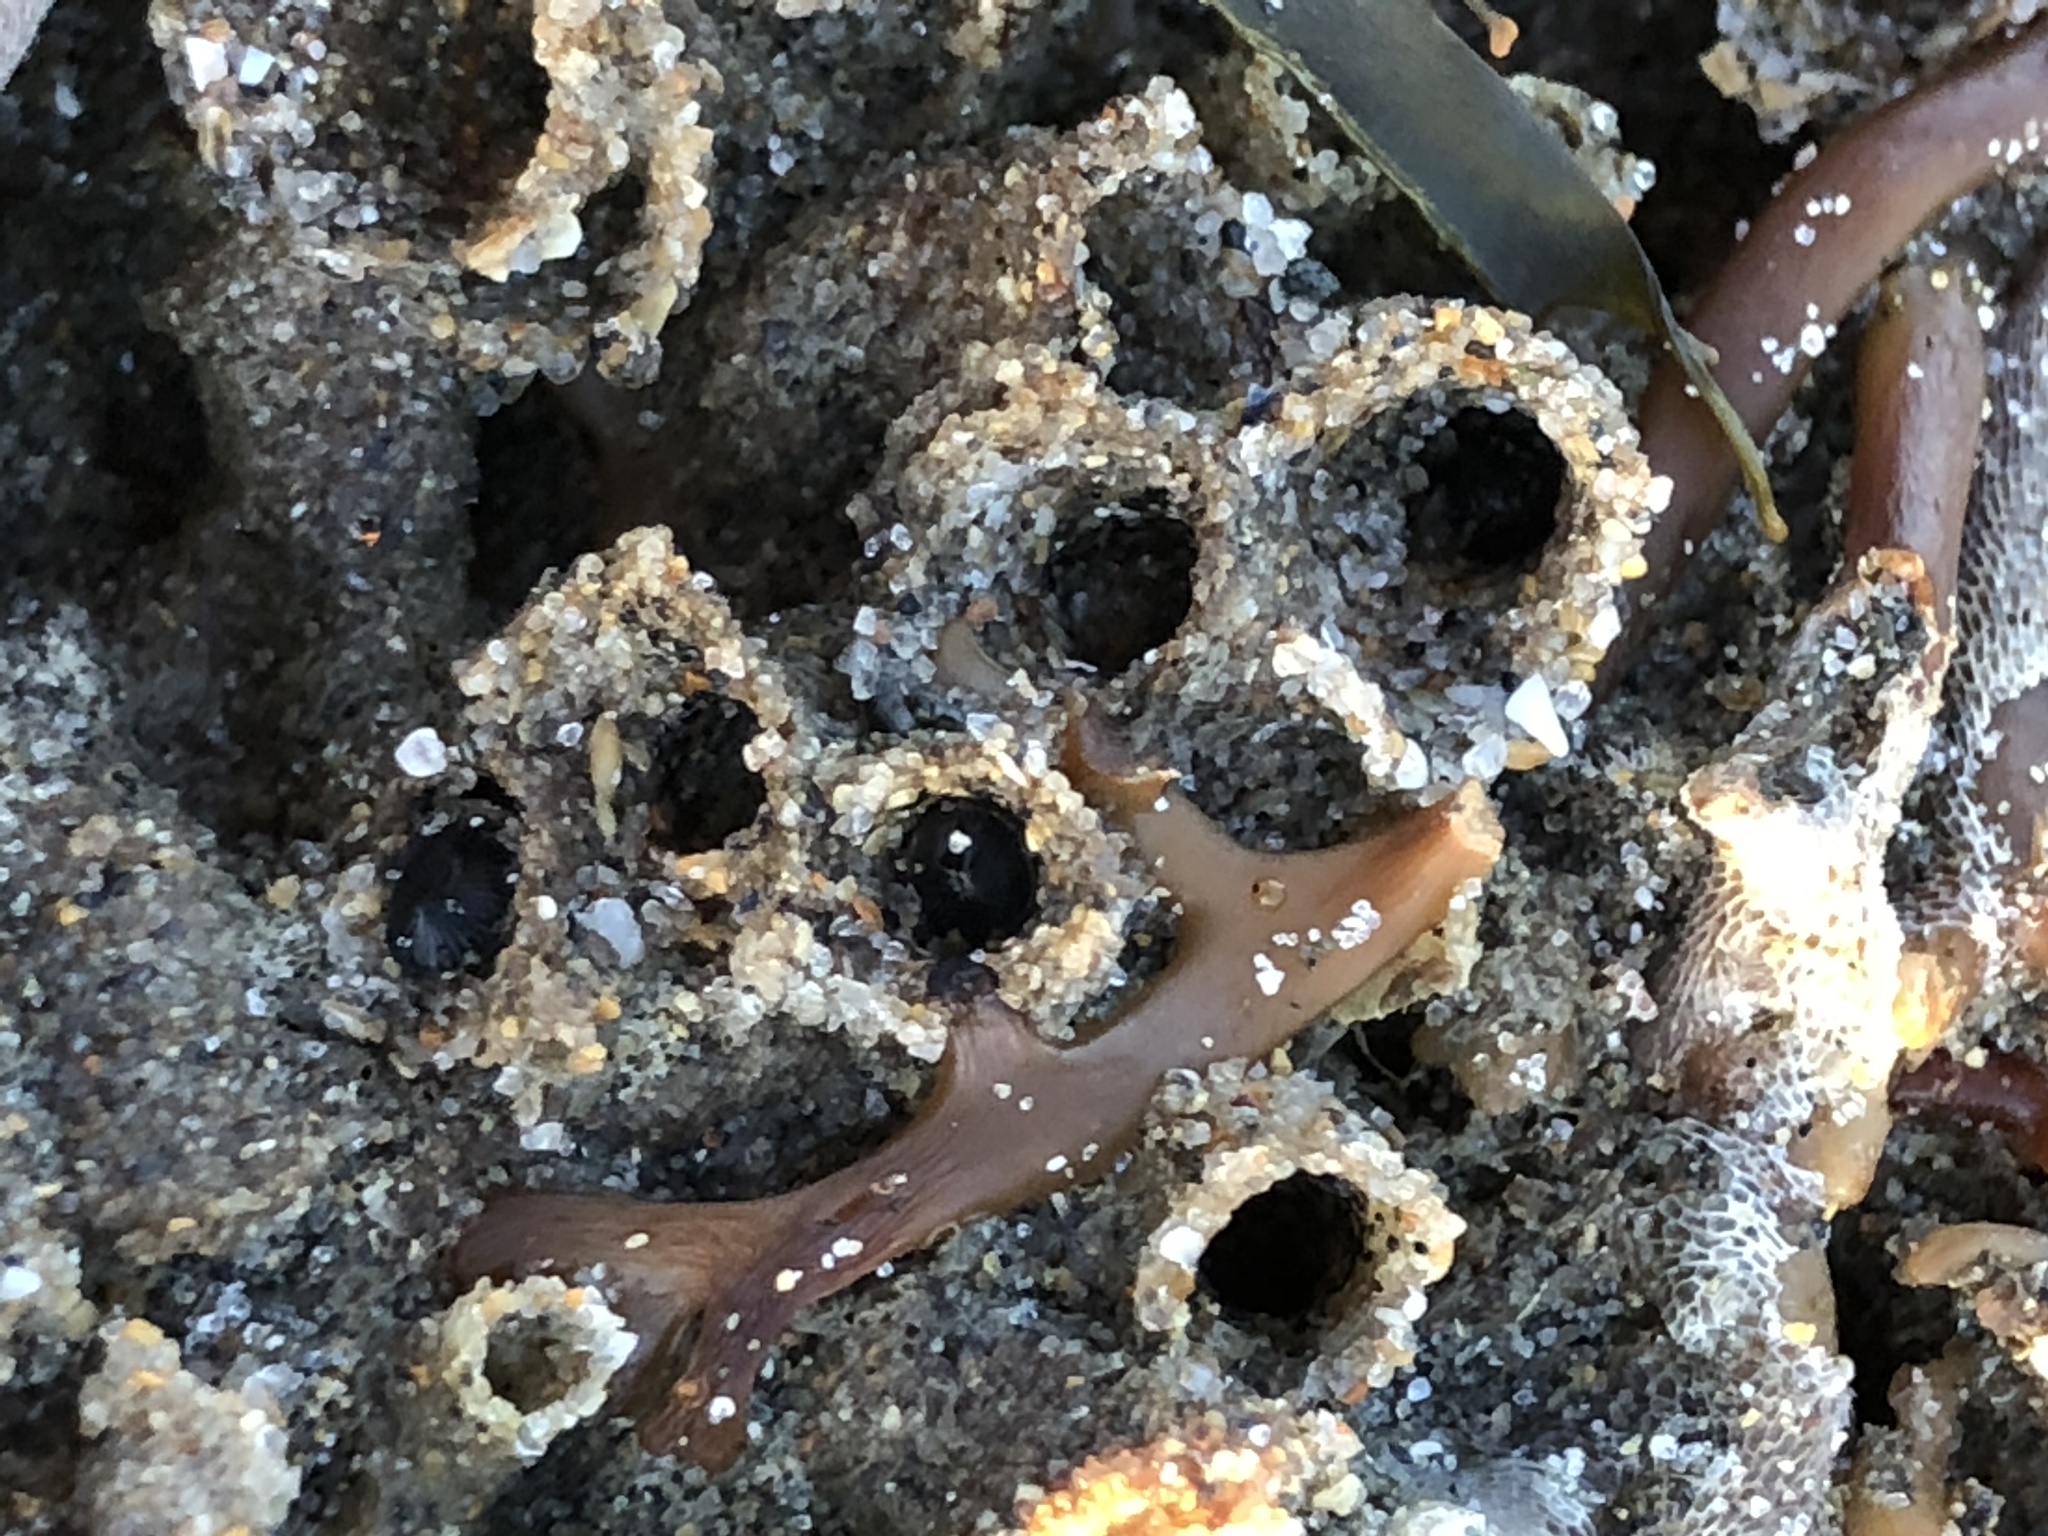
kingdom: Animalia
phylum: Annelida
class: Polychaeta
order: Sabellida
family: Sabellariidae
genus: Phragmatopoma
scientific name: Phragmatopoma californica
